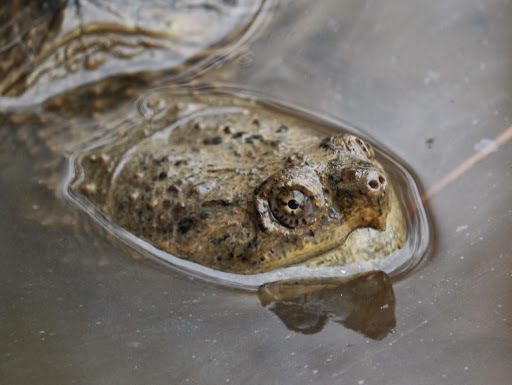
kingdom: Animalia
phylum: Chordata
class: Testudines
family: Chelydridae
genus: Chelydra
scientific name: Chelydra serpentina
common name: Common snapping turtle
